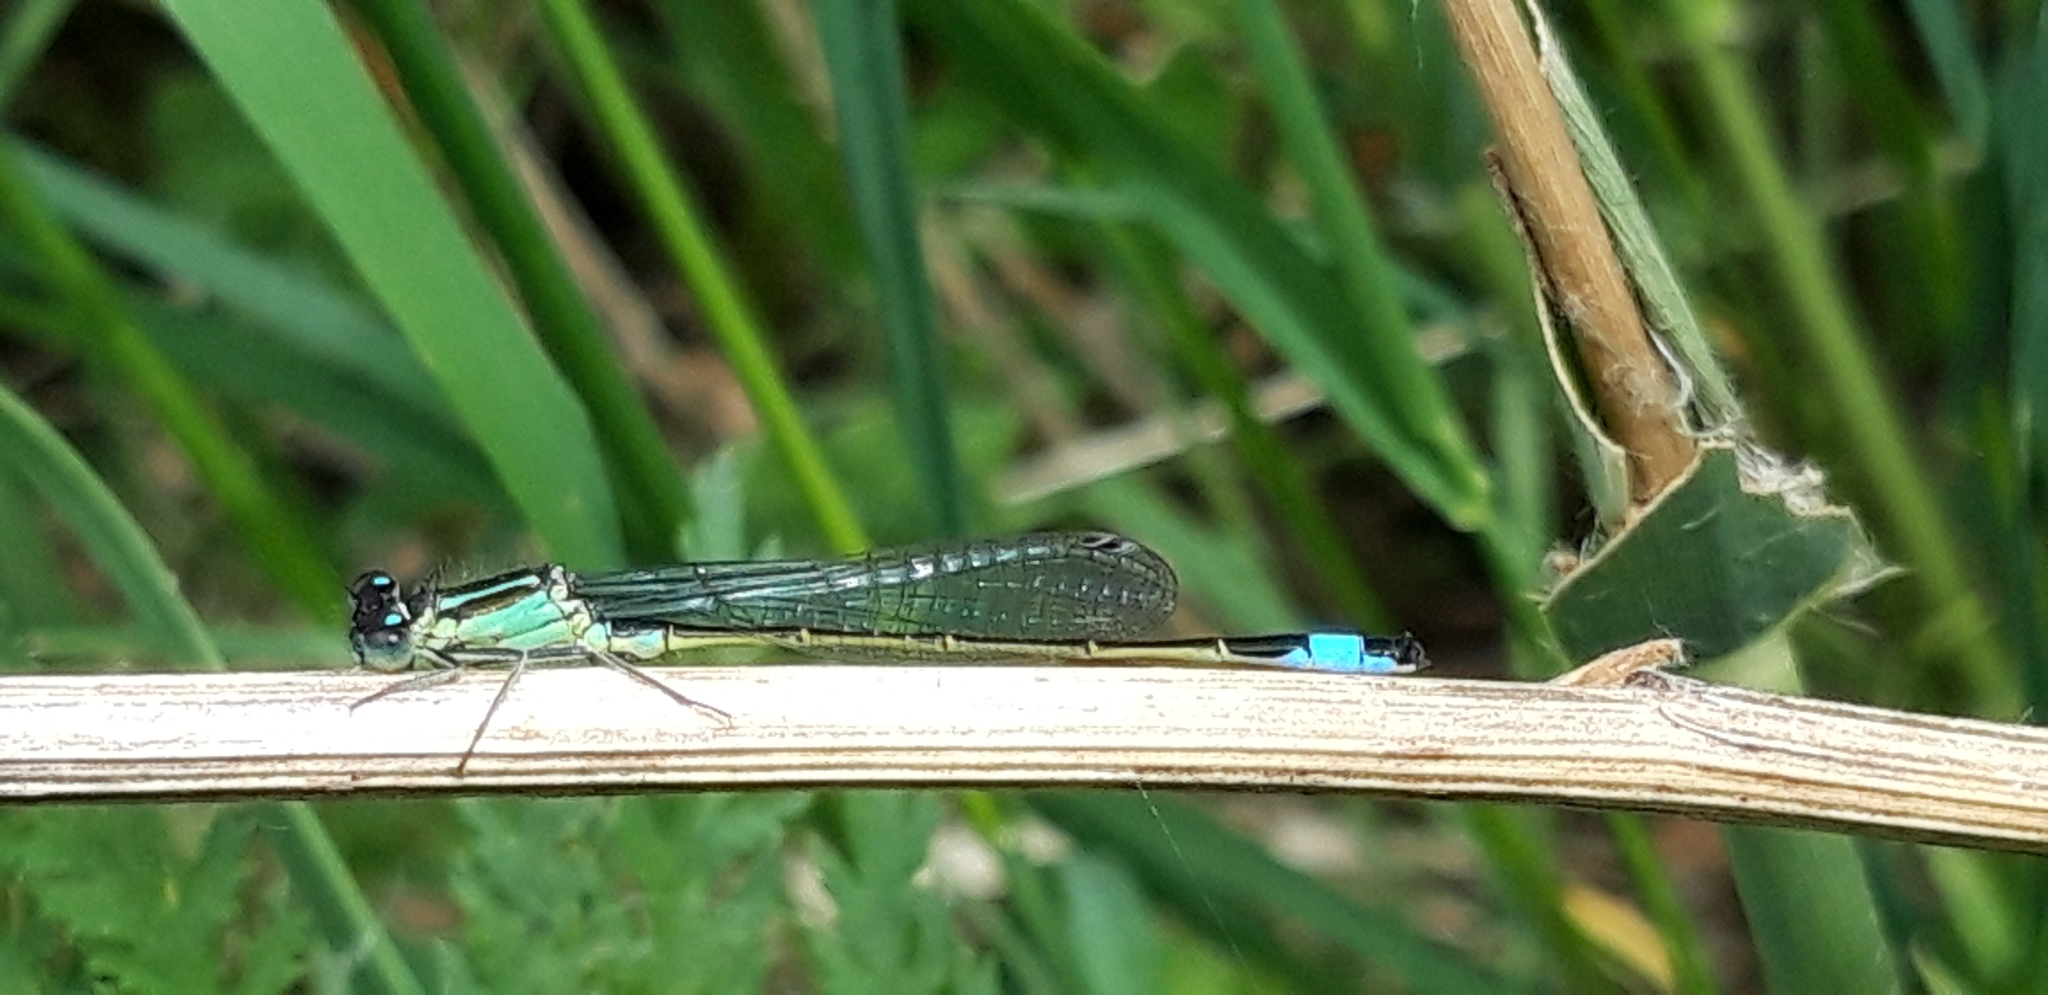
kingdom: Animalia
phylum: Arthropoda
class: Insecta
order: Odonata
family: Coenagrionidae
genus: Ischnura
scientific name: Ischnura elegans
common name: Blue-tailed damselfly
